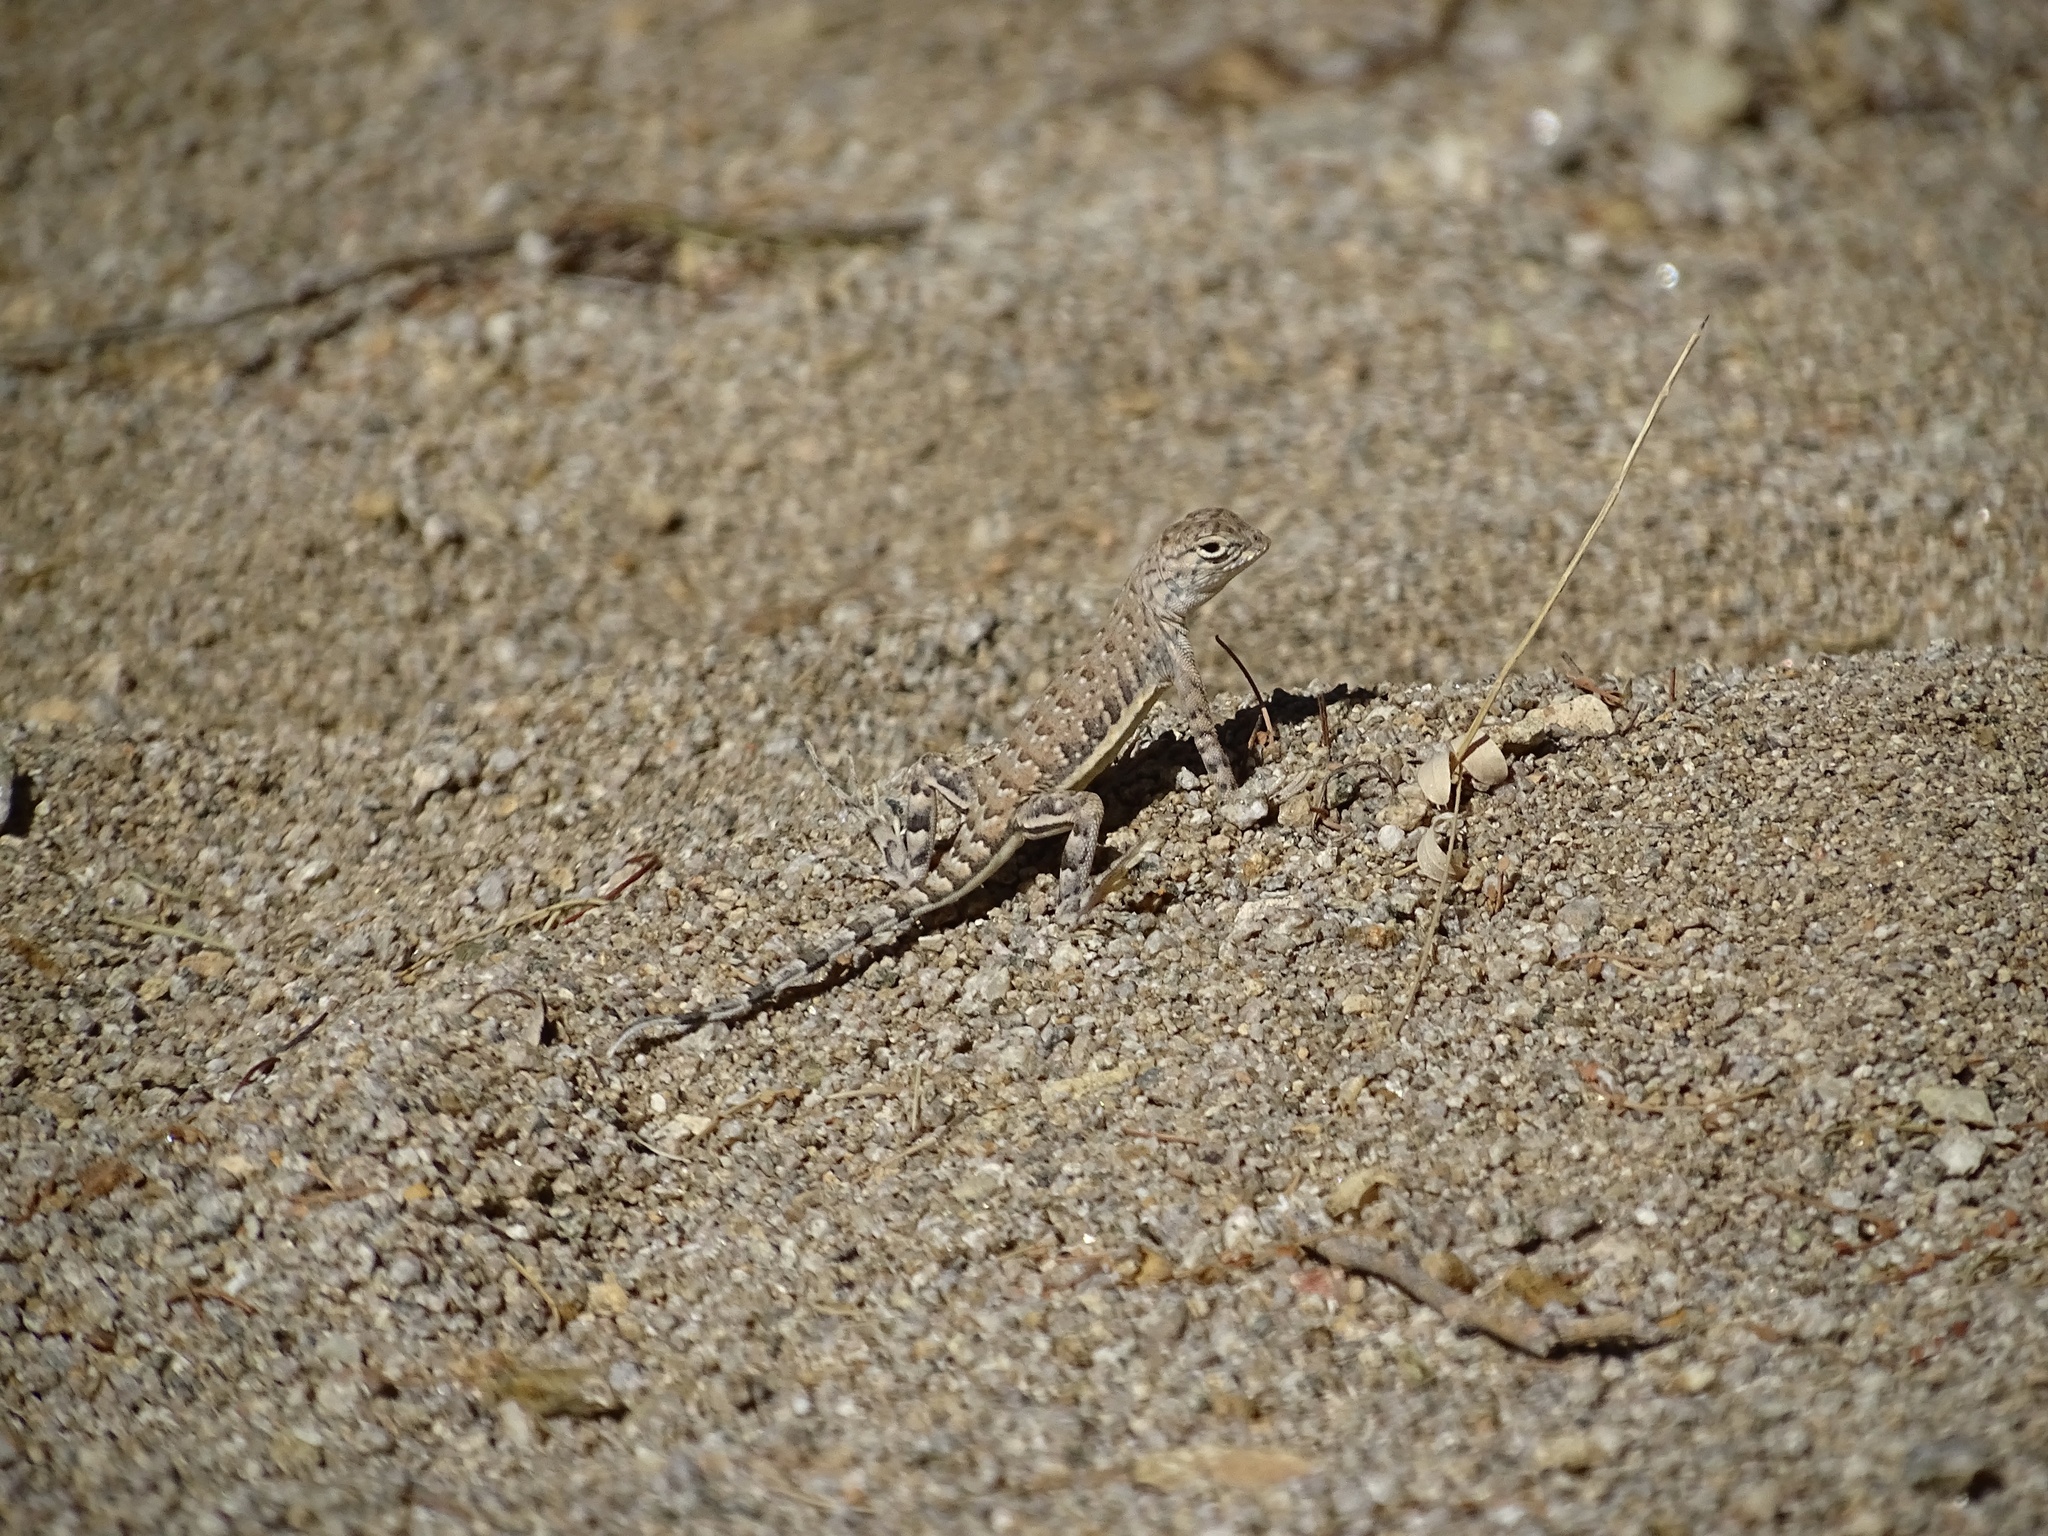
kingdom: Animalia
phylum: Chordata
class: Squamata
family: Phrynosomatidae
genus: Callisaurus
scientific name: Callisaurus draconoides
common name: Zebra-tailed lizard
